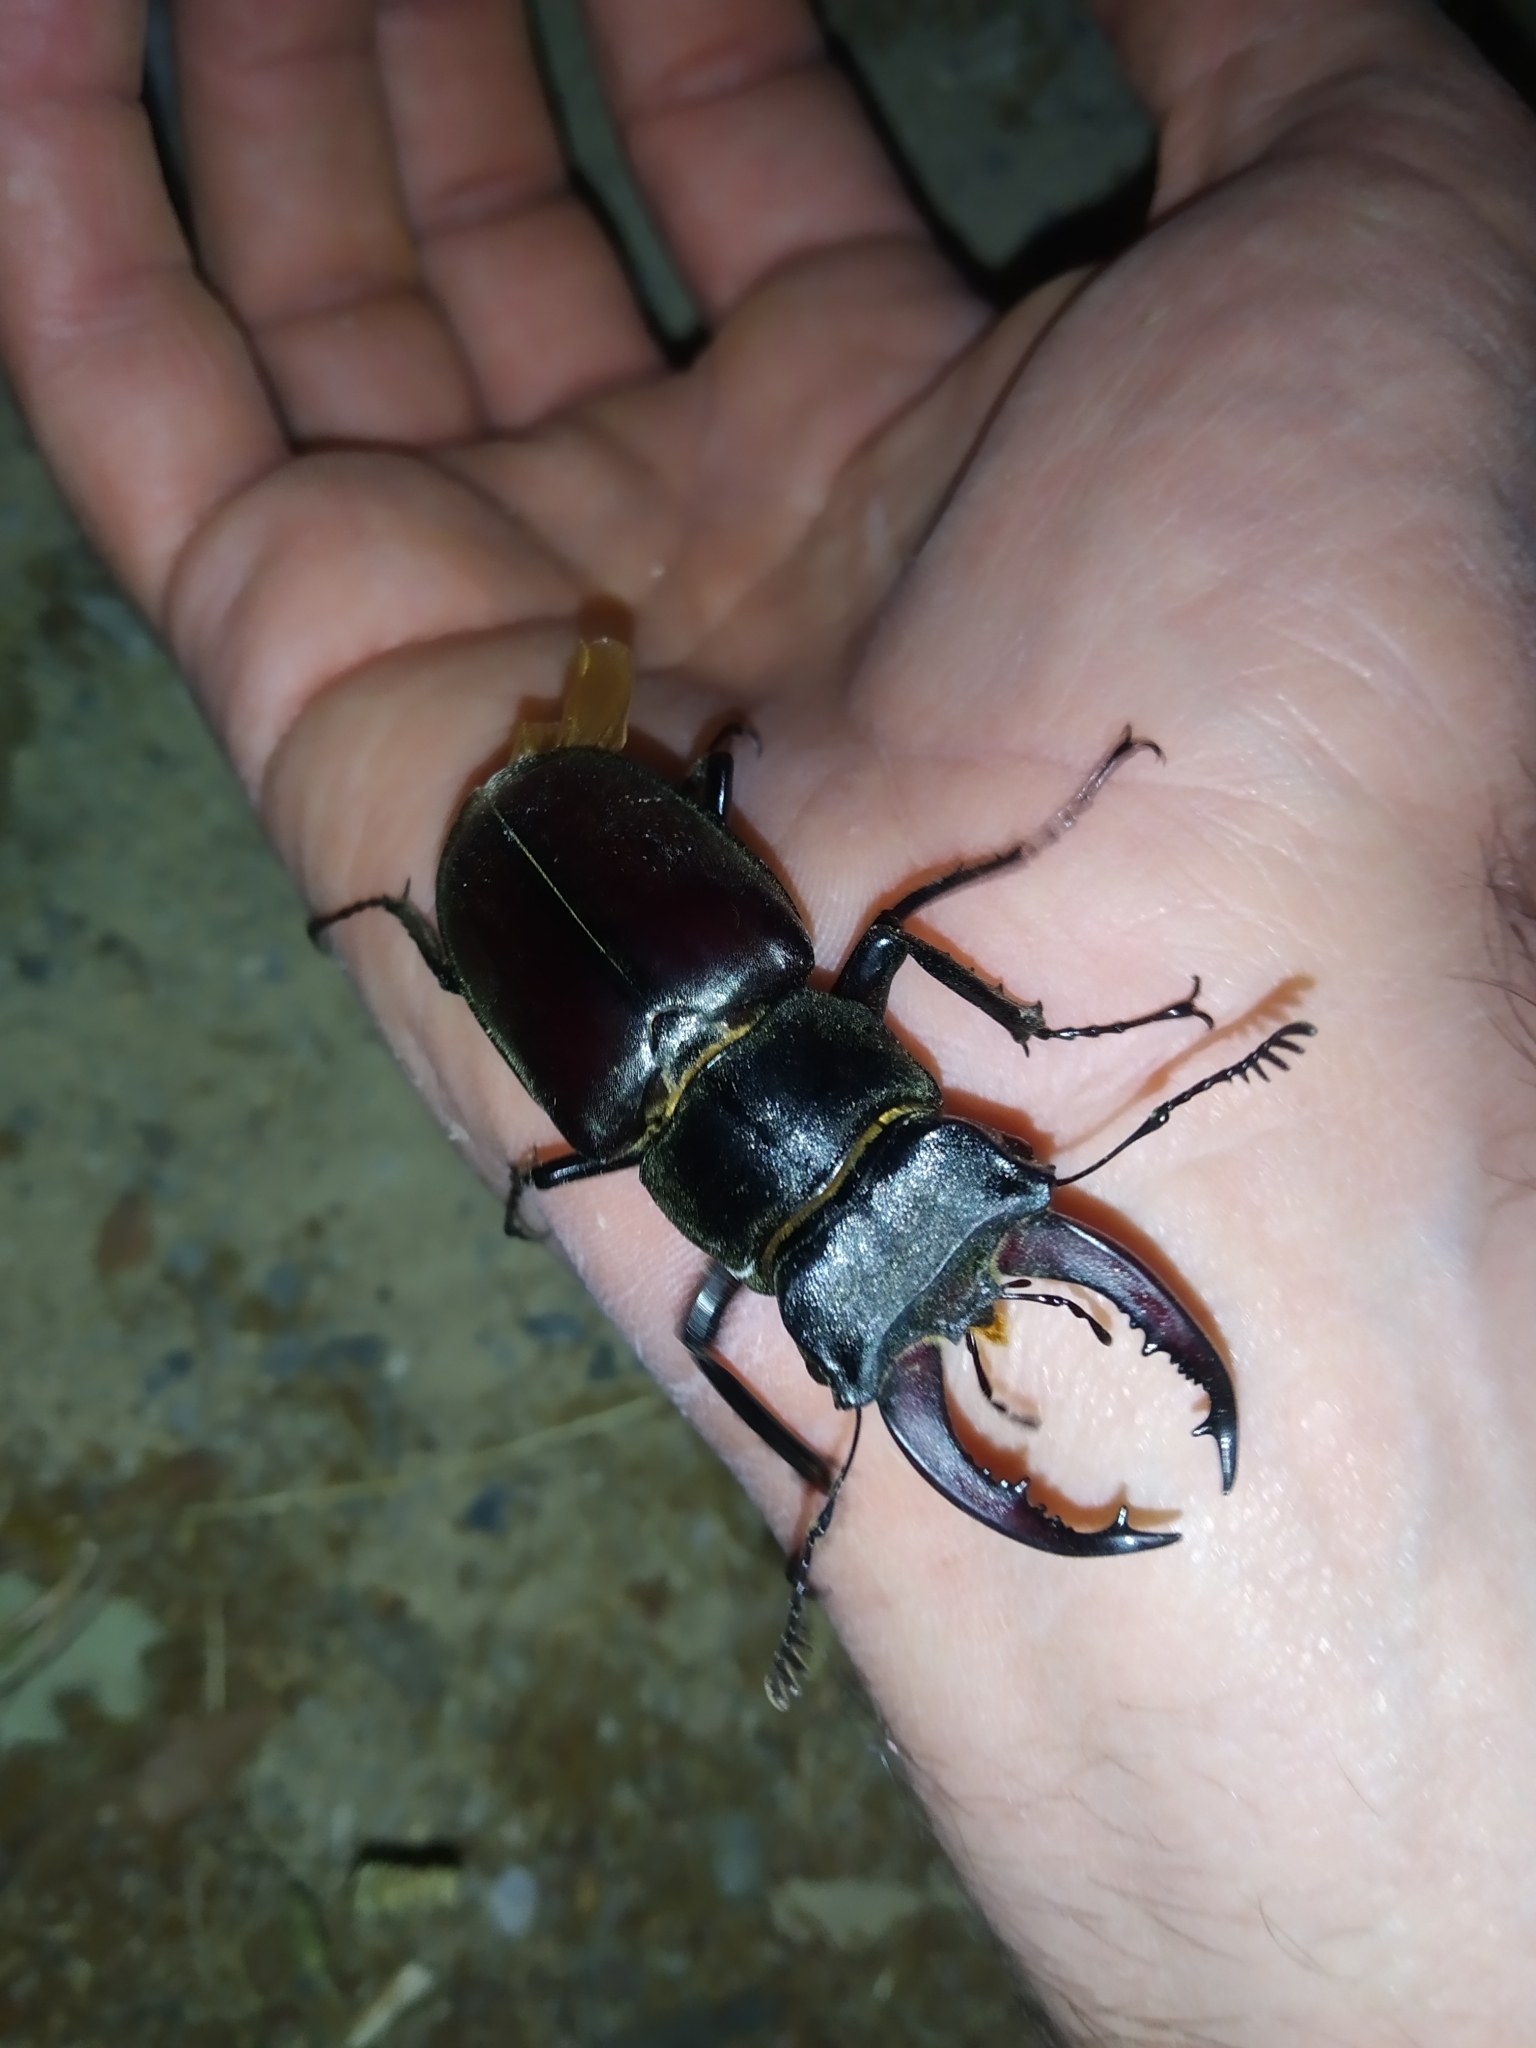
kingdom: Animalia
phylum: Arthropoda
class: Insecta
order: Coleoptera
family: Lucanidae
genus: Lucanus
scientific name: Lucanus cervus
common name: Stag beetle
